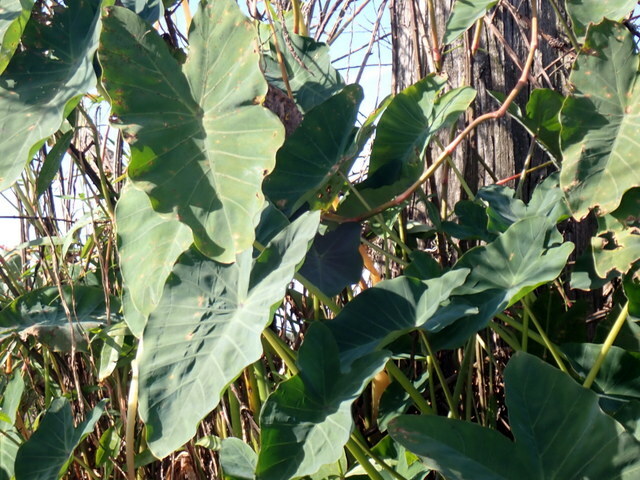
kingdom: Plantae
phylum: Tracheophyta
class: Liliopsida
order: Alismatales
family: Araceae
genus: Colocasia
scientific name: Colocasia esculenta
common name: Taro
